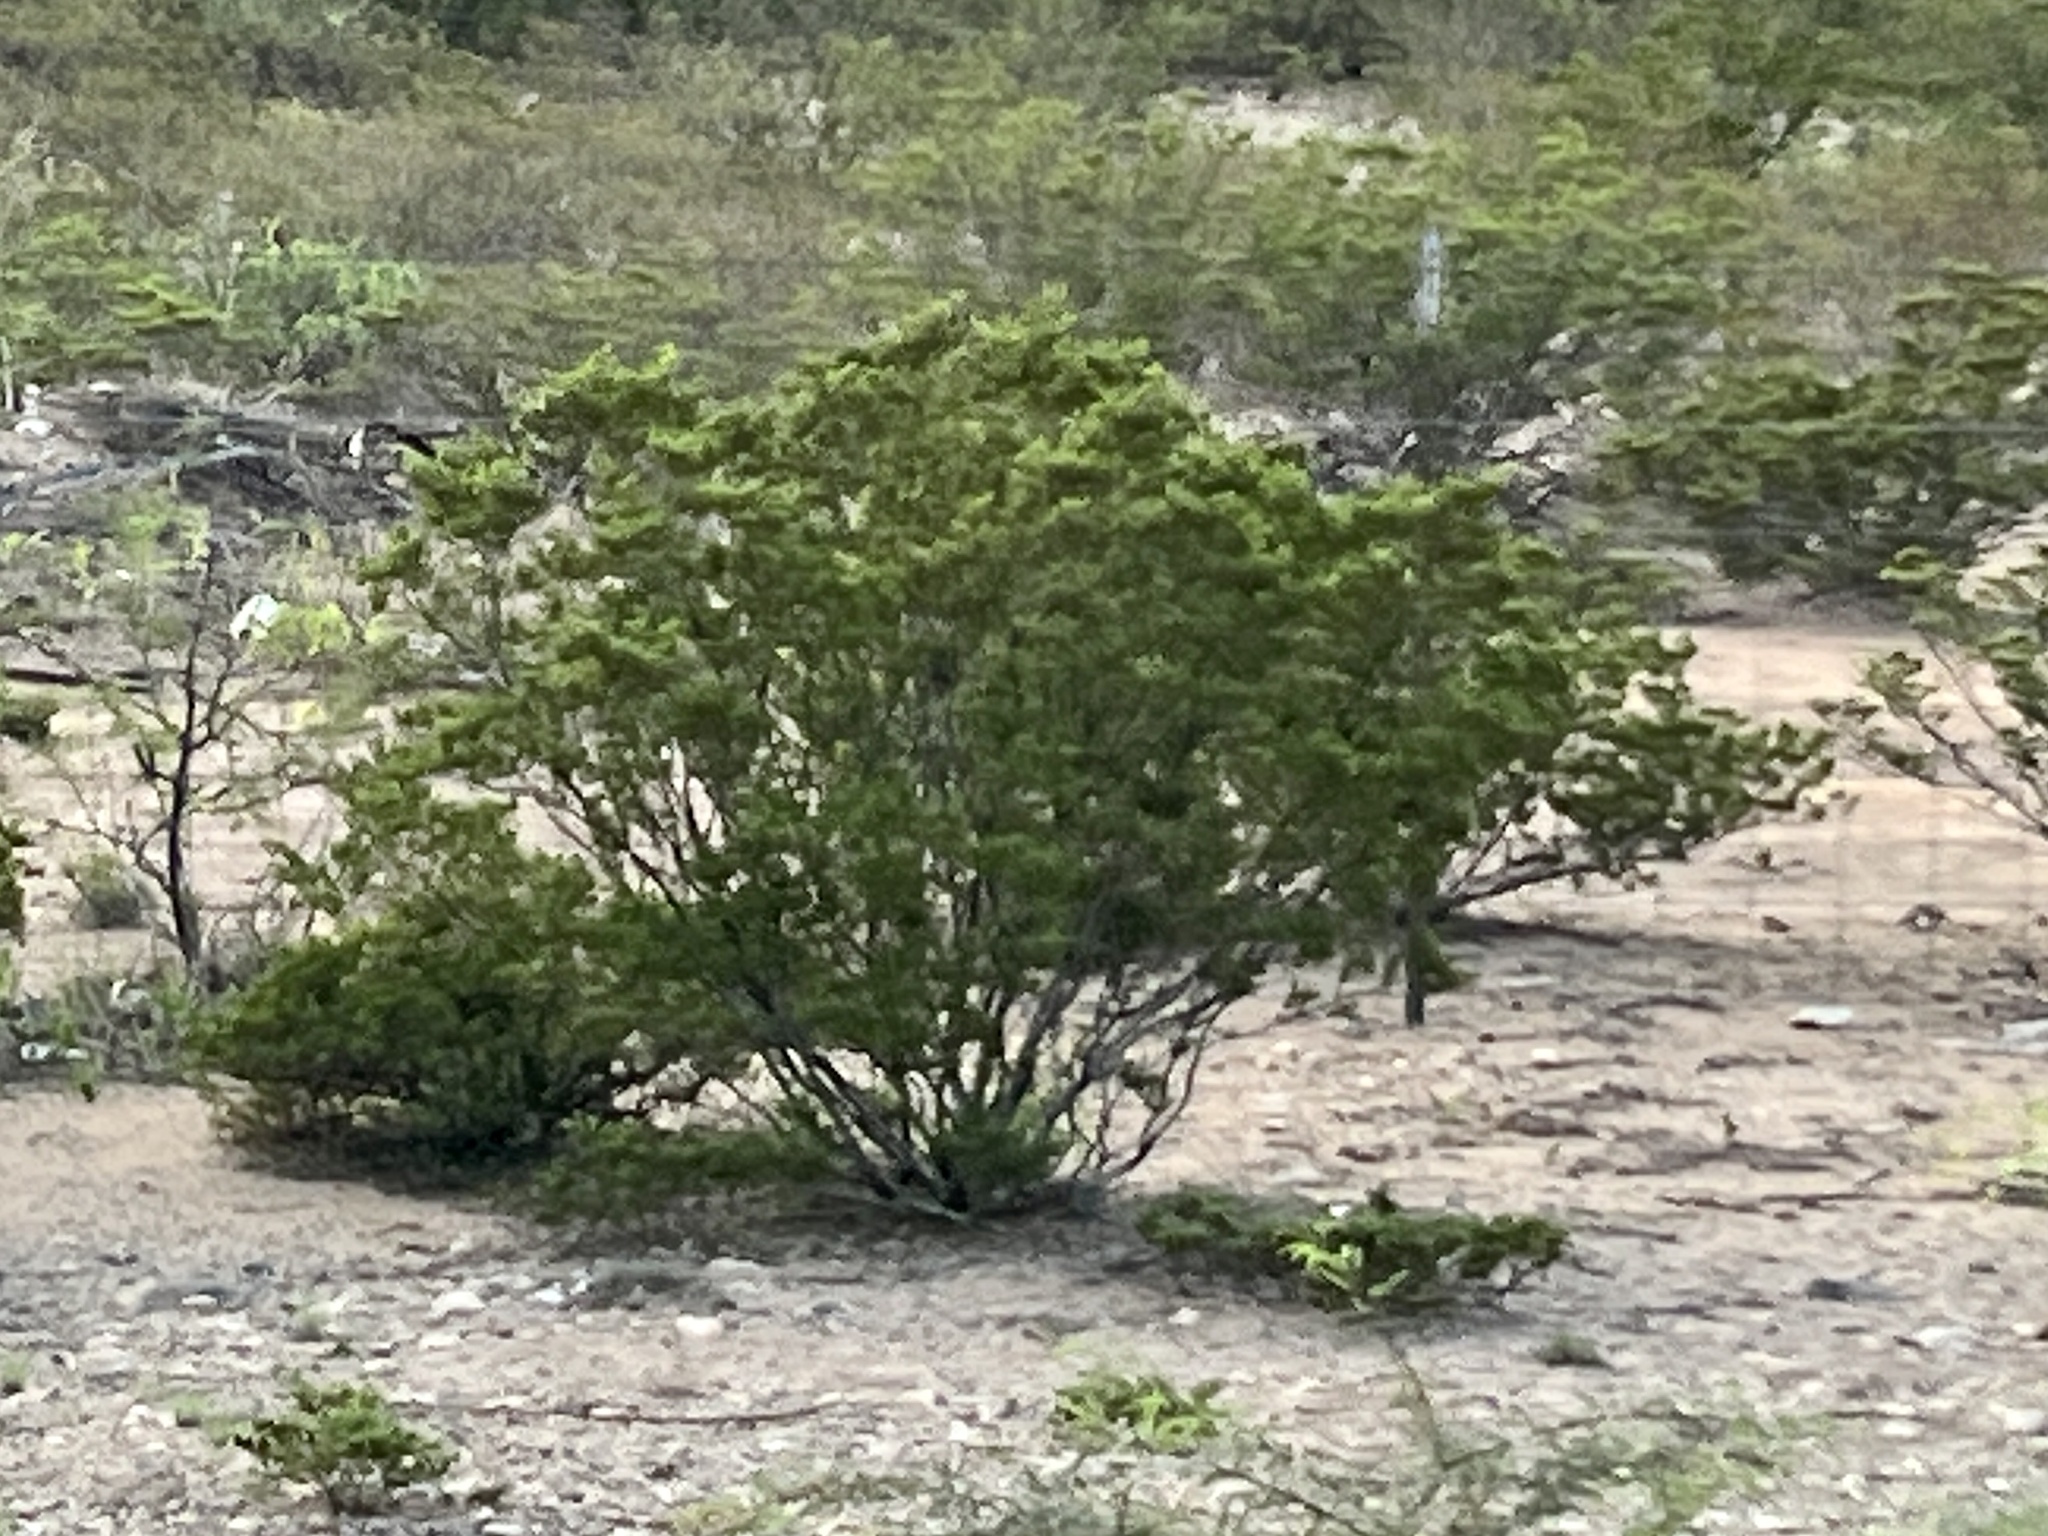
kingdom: Plantae
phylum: Tracheophyta
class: Magnoliopsida
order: Zygophyllales
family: Zygophyllaceae
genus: Larrea
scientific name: Larrea tridentata
